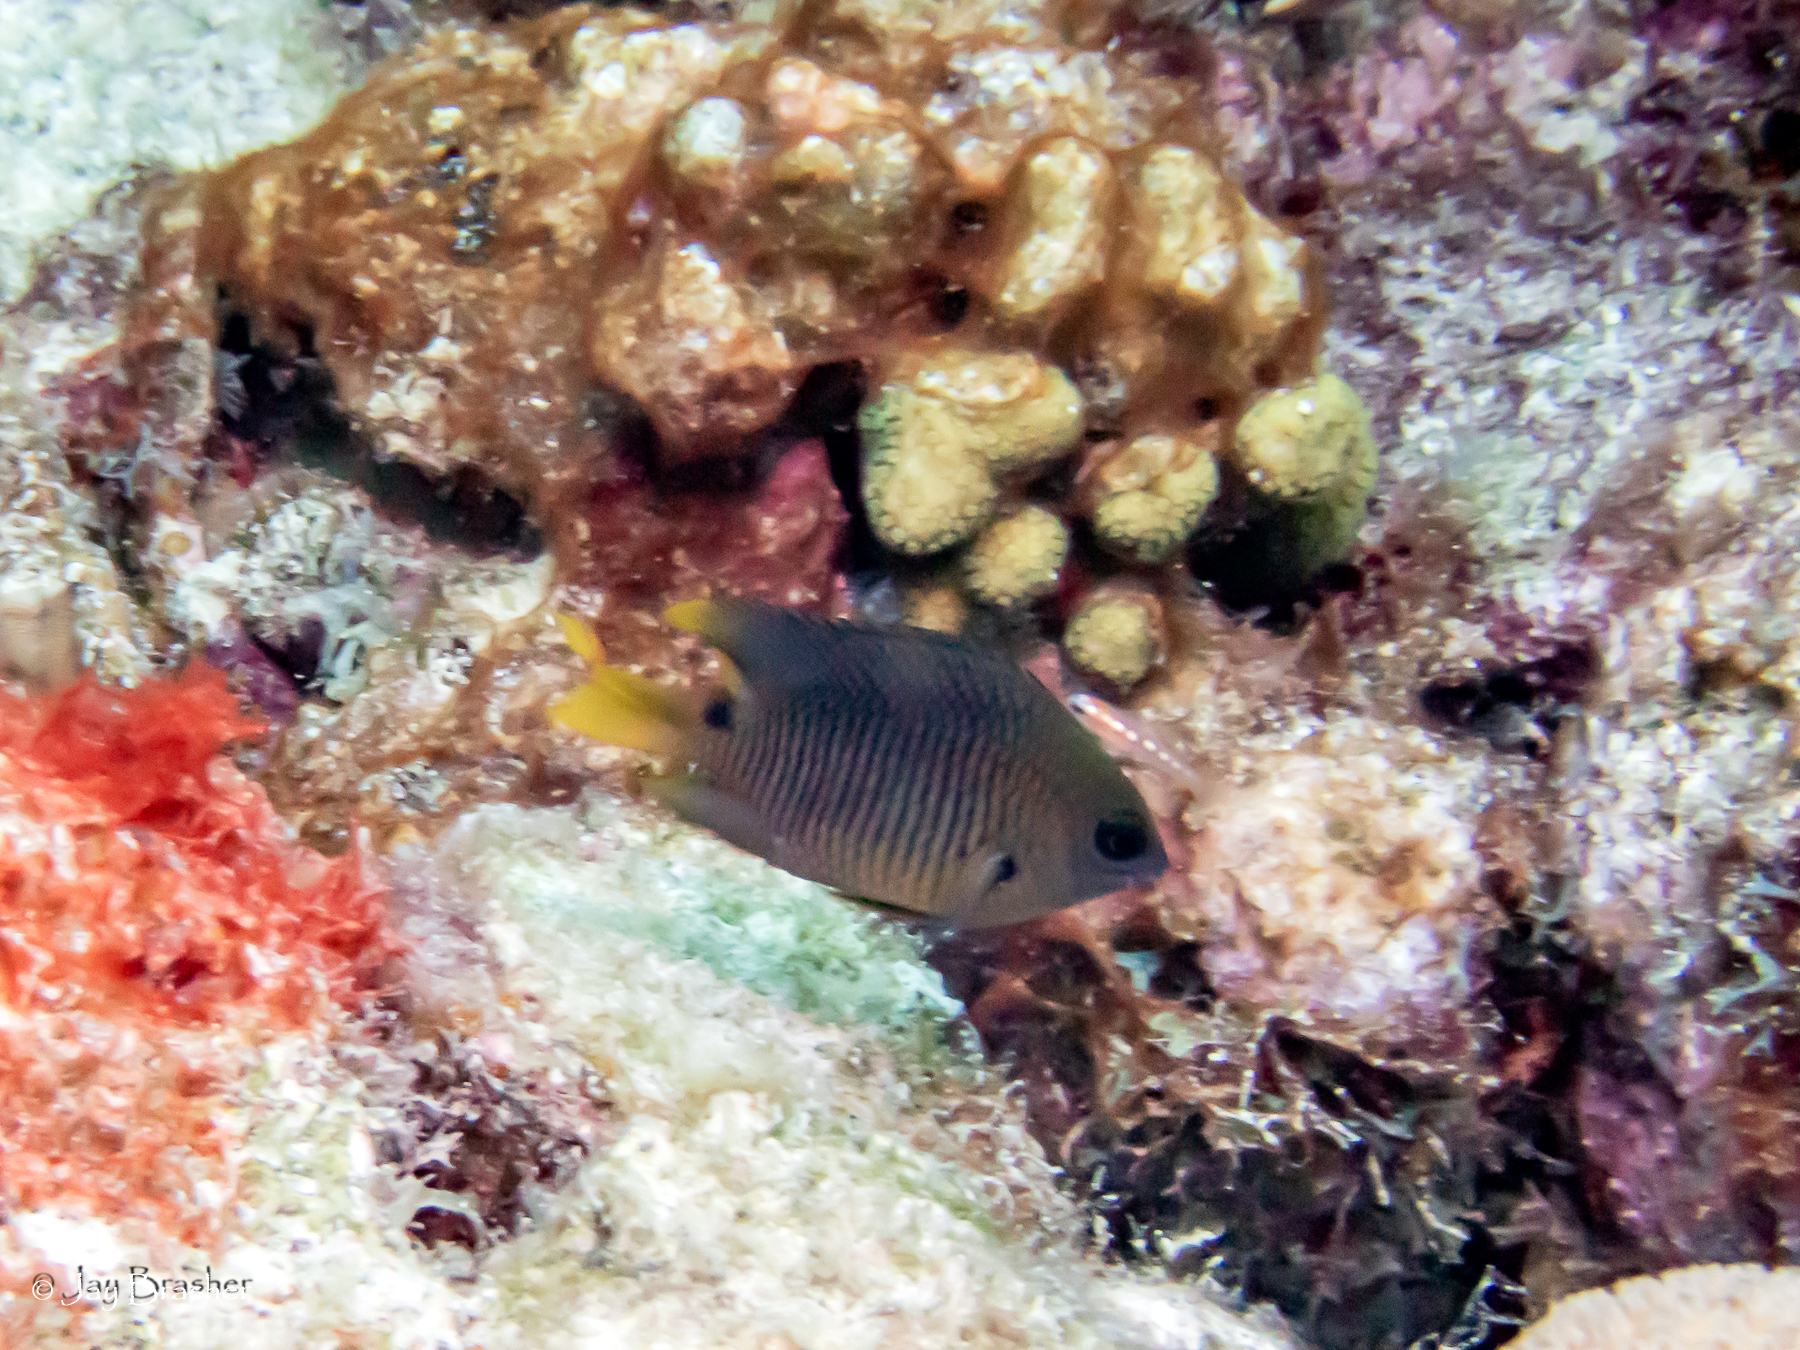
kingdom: Animalia
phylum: Chordata
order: Perciformes
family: Pomacentridae
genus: Stegastes
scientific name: Stegastes planifrons
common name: Threespot damselfish
